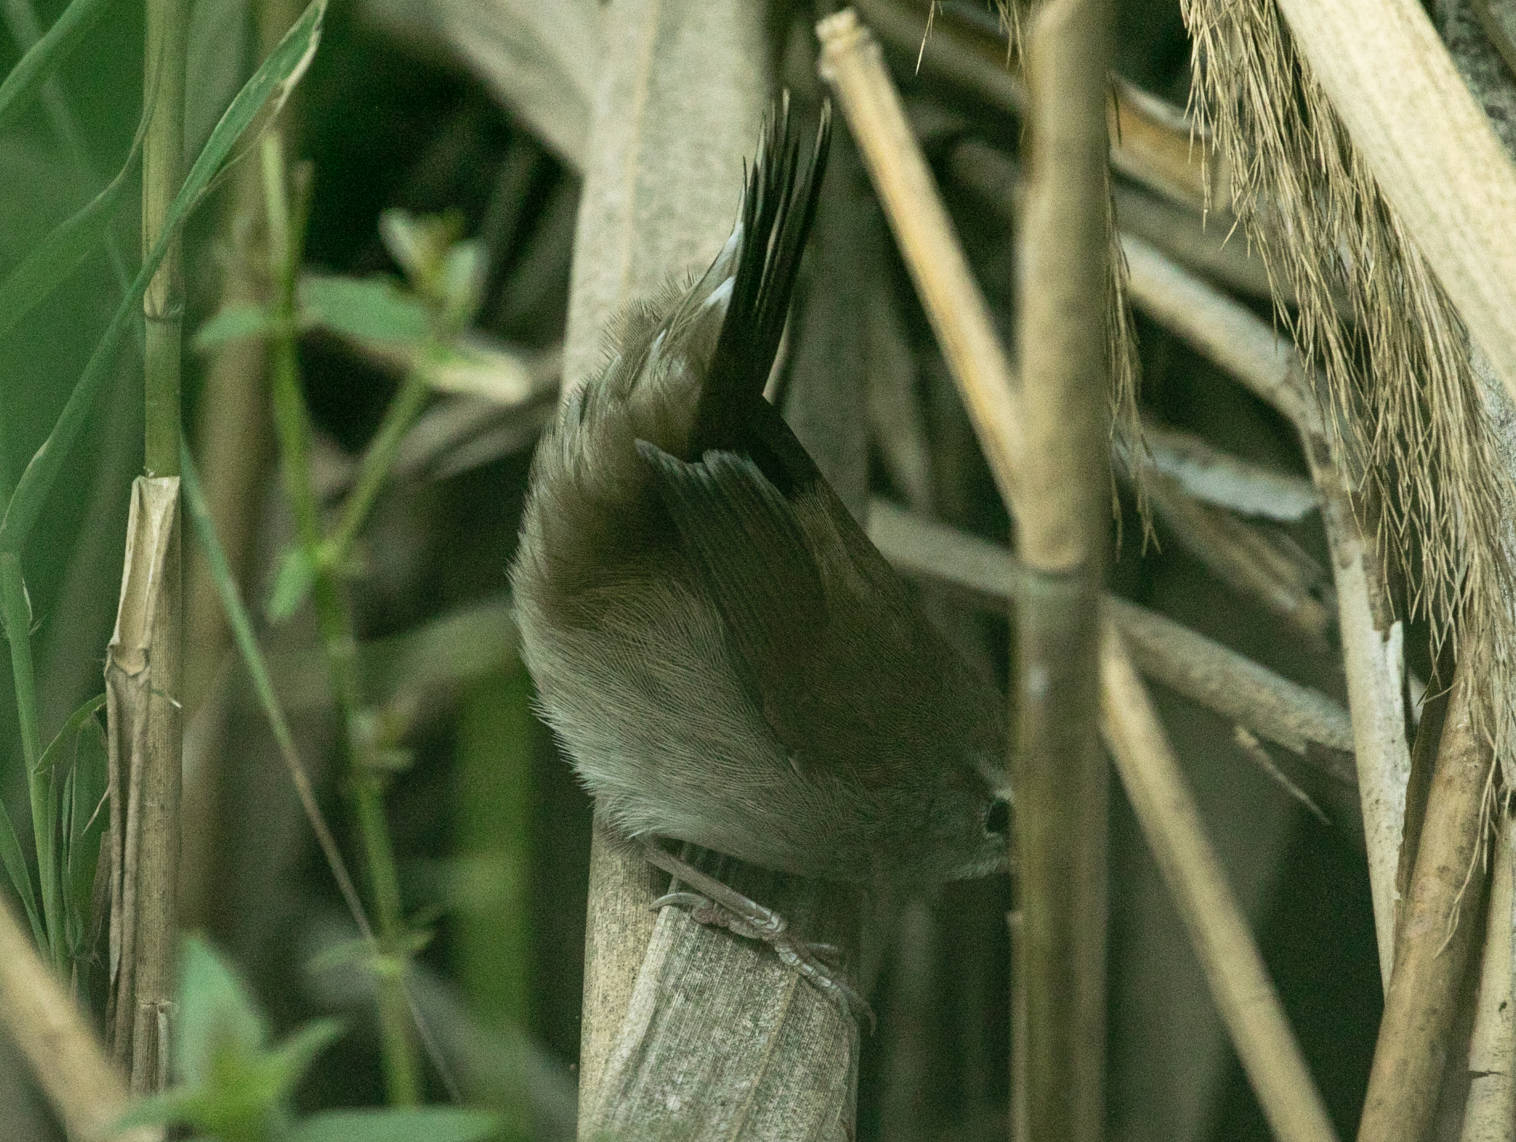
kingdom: Animalia
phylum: Chordata
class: Aves
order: Passeriformes
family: Cettiidae
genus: Cettia
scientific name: Cettia cetti
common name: Cetti's warbler
